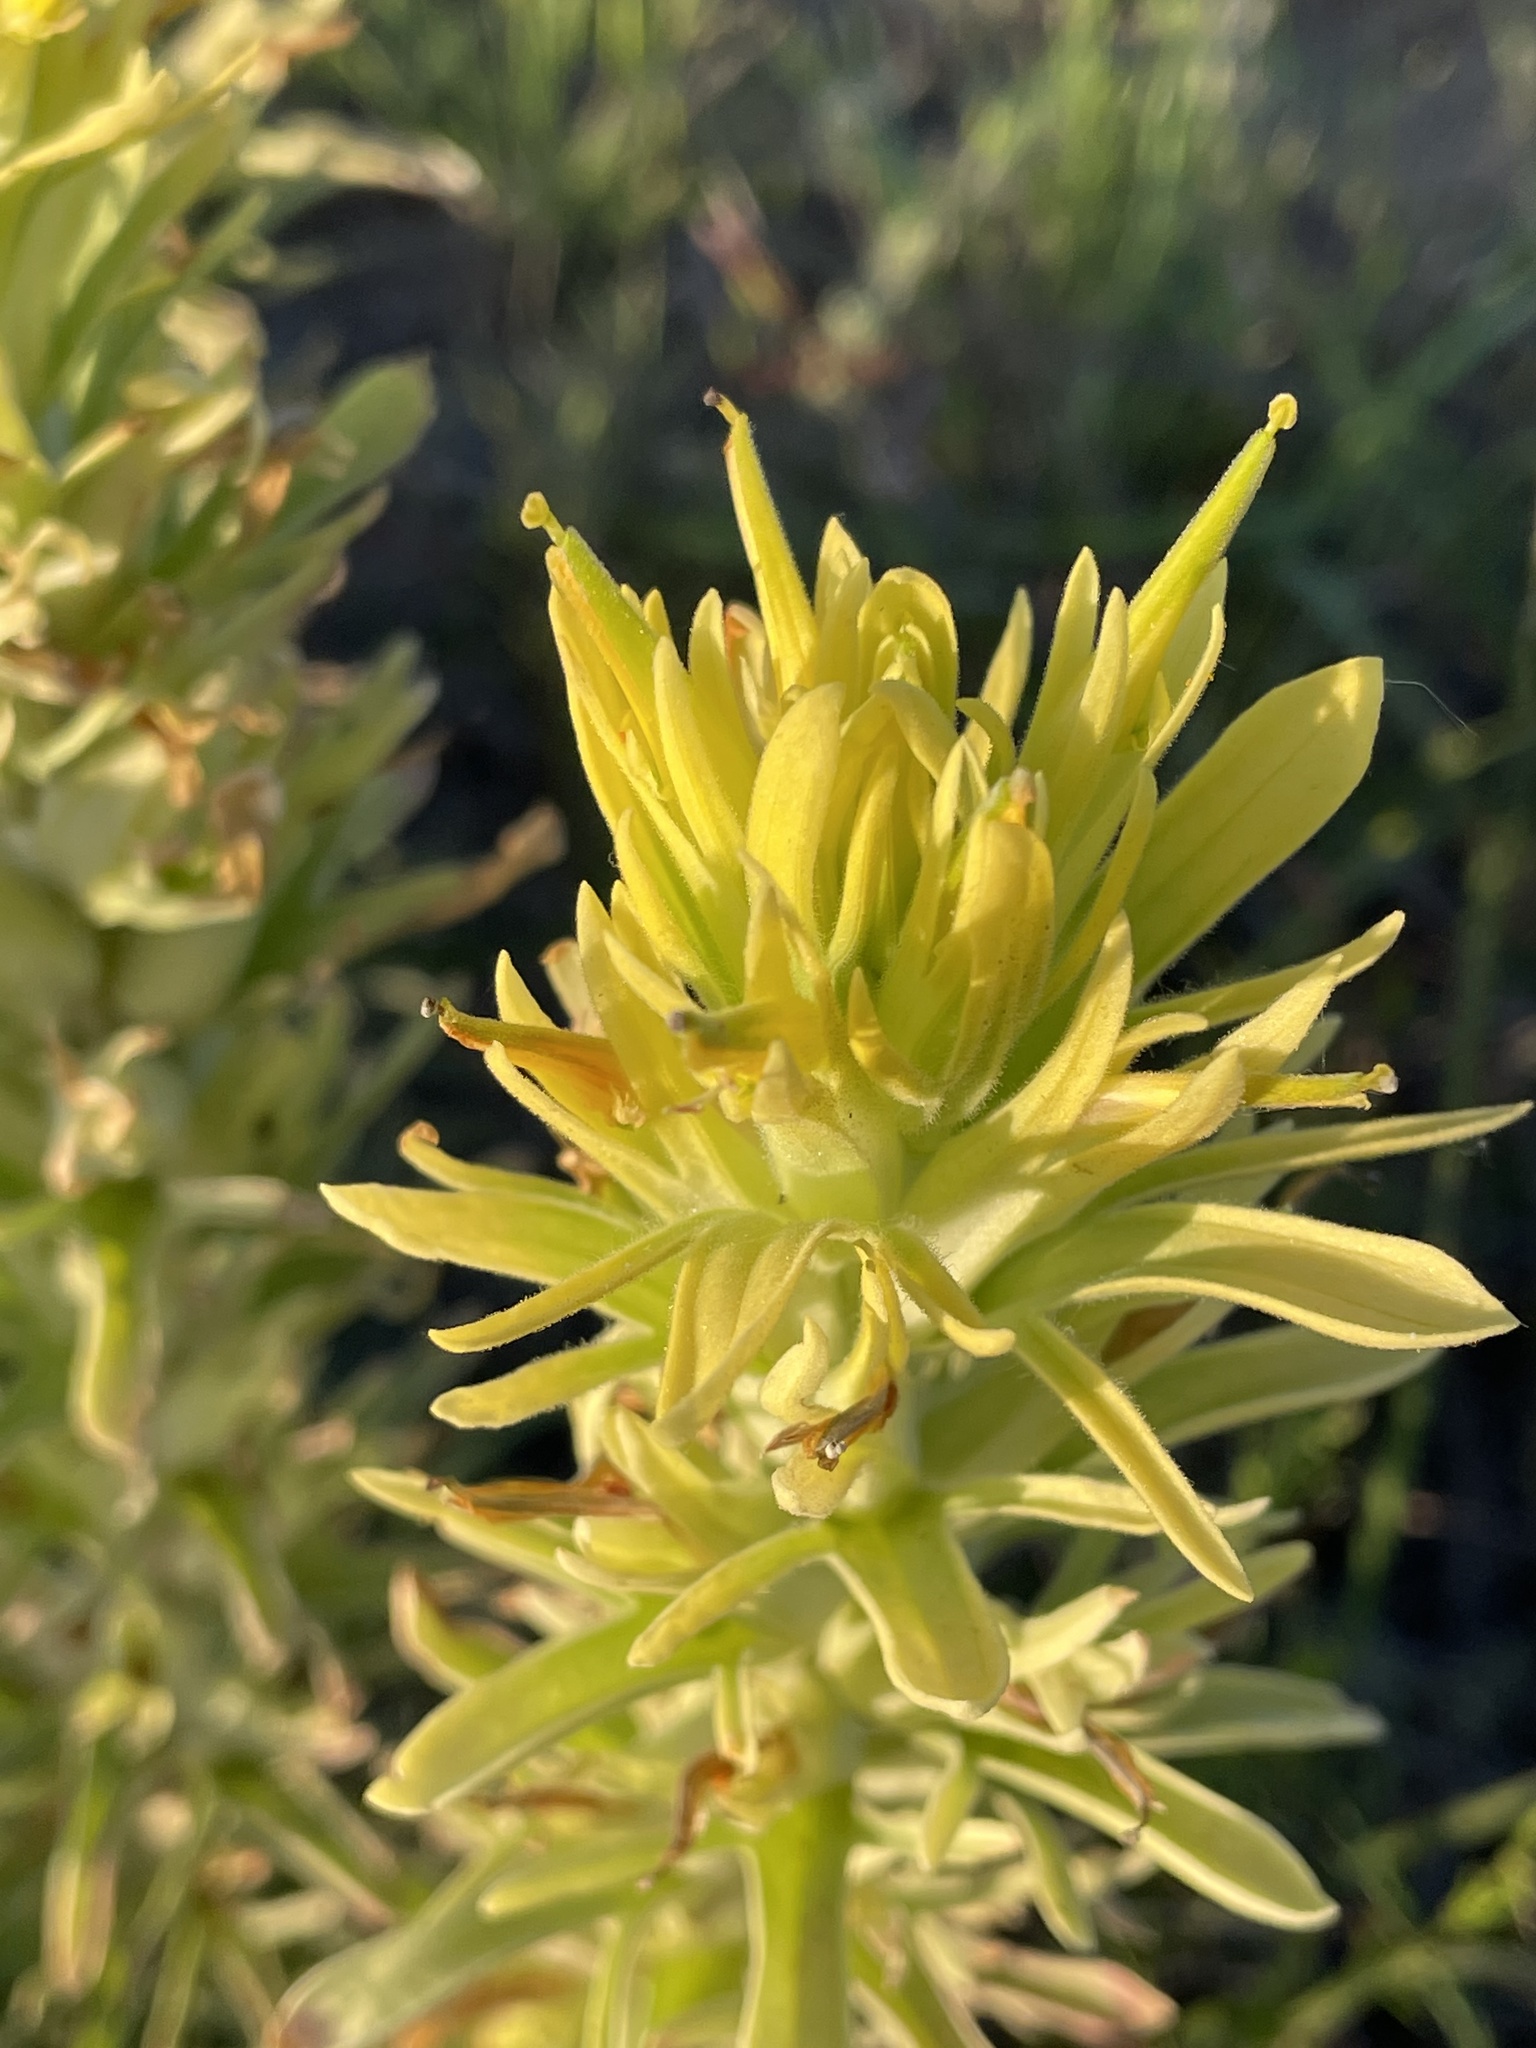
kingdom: Plantae
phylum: Tracheophyta
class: Magnoliopsida
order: Lamiales
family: Orobanchaceae
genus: Castilleja
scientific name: Castilleja citrina
